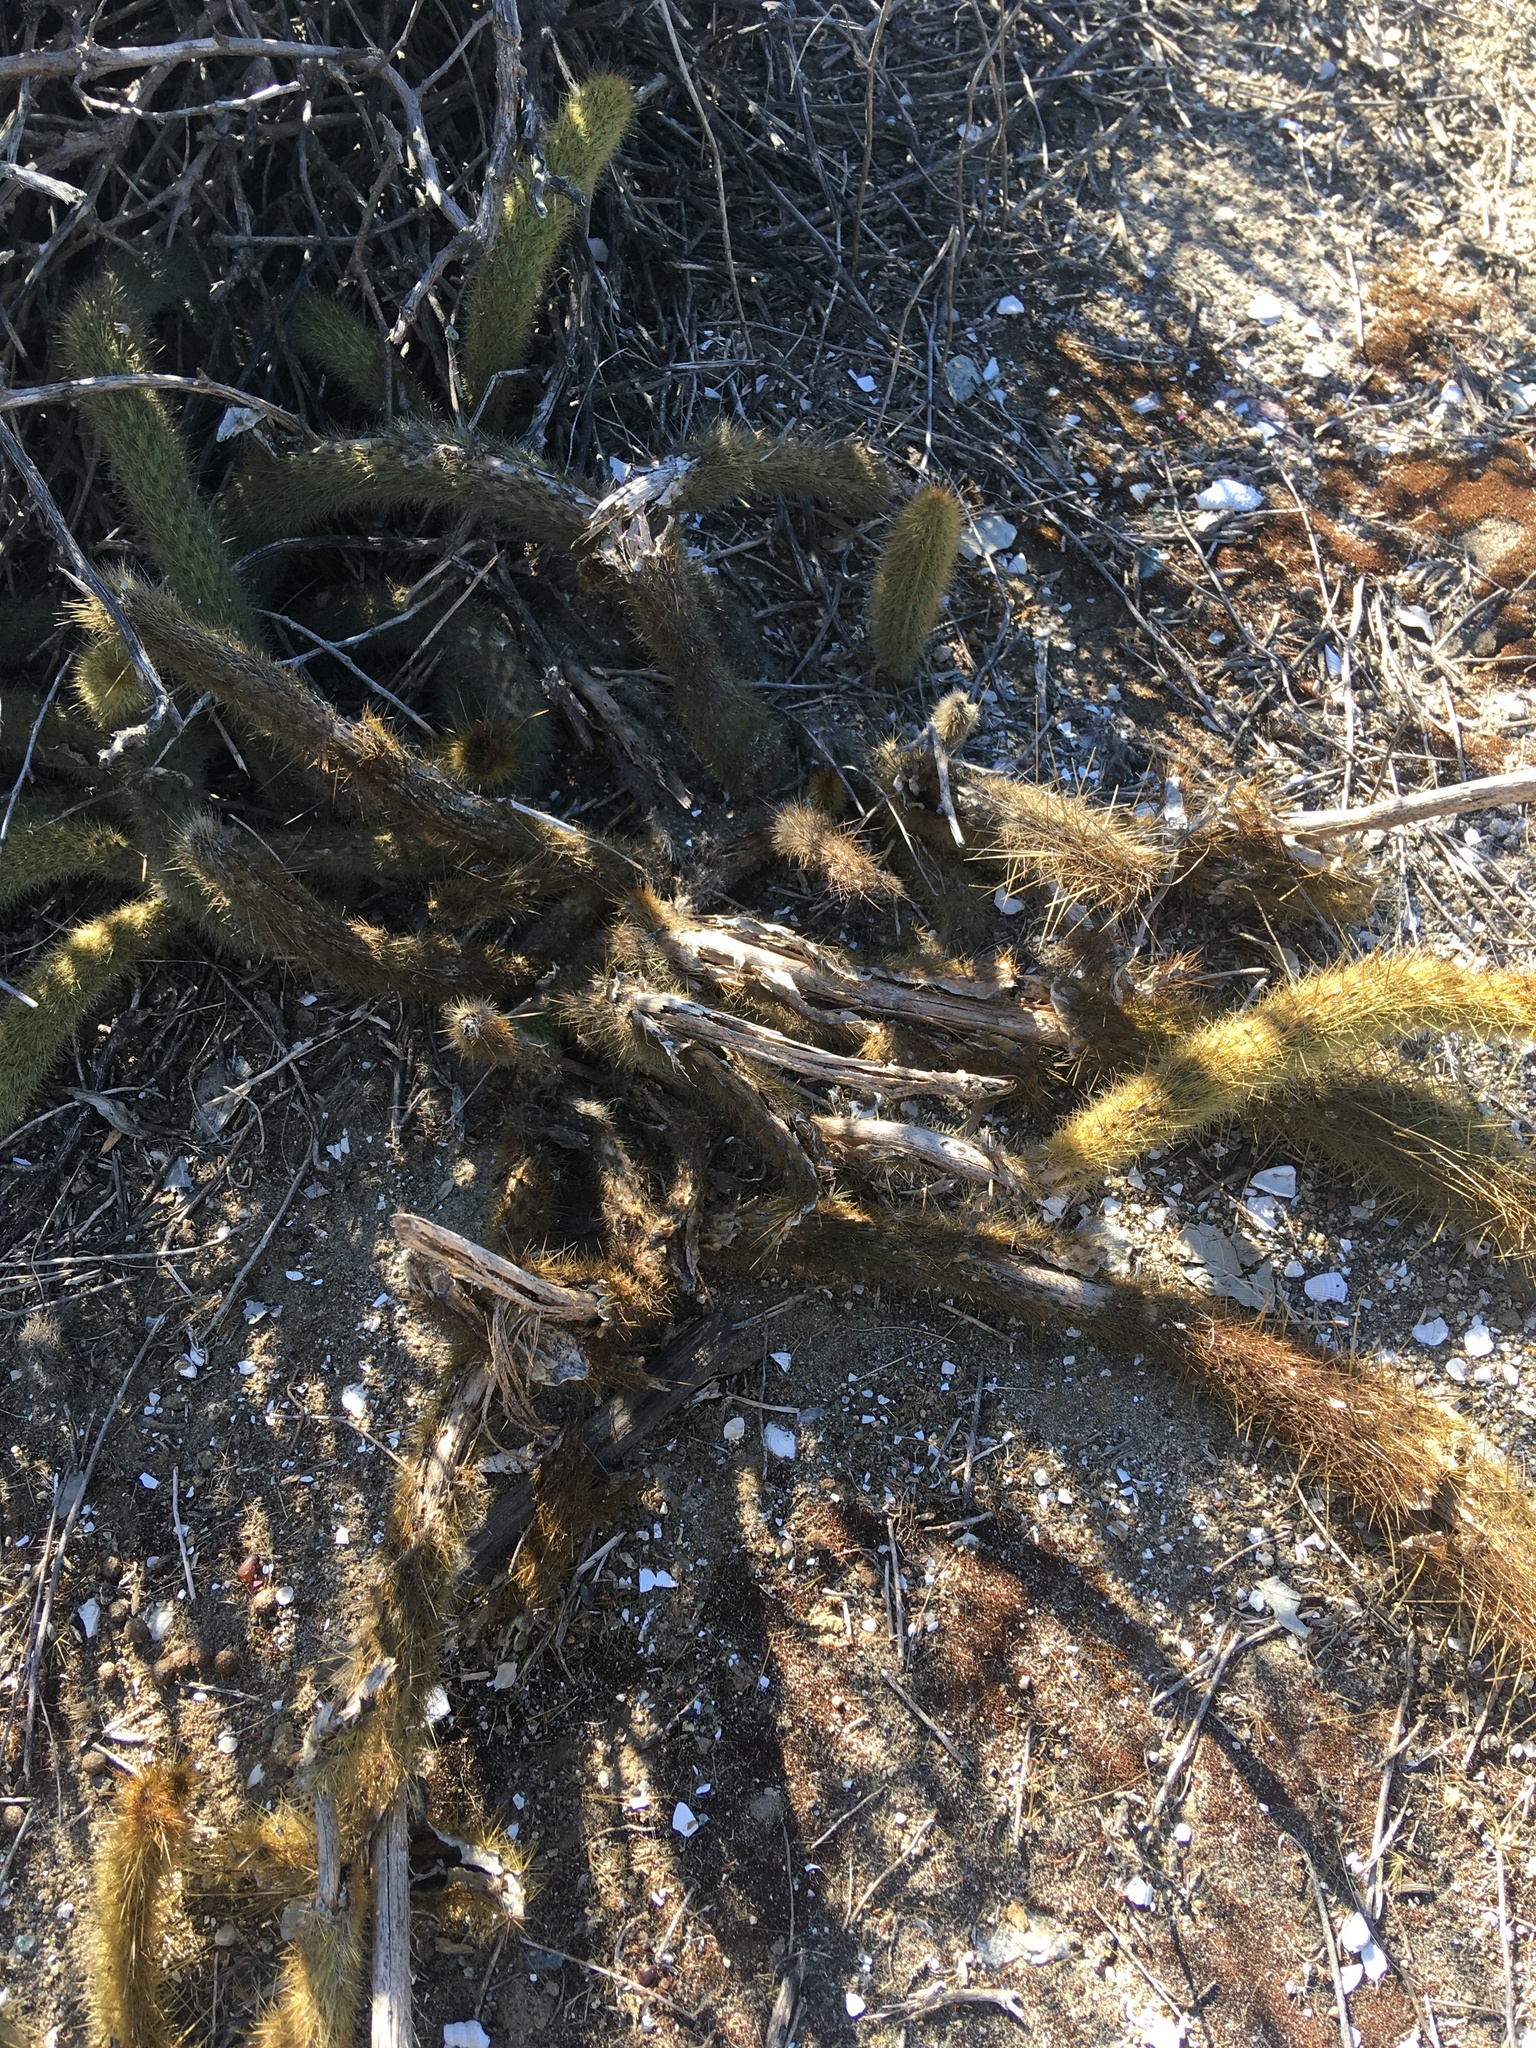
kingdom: Plantae
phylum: Tracheophyta
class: Magnoliopsida
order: Caryophyllales
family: Cactaceae
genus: Bergerocactus
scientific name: Bergerocactus emoryi
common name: Golden snakecactus
